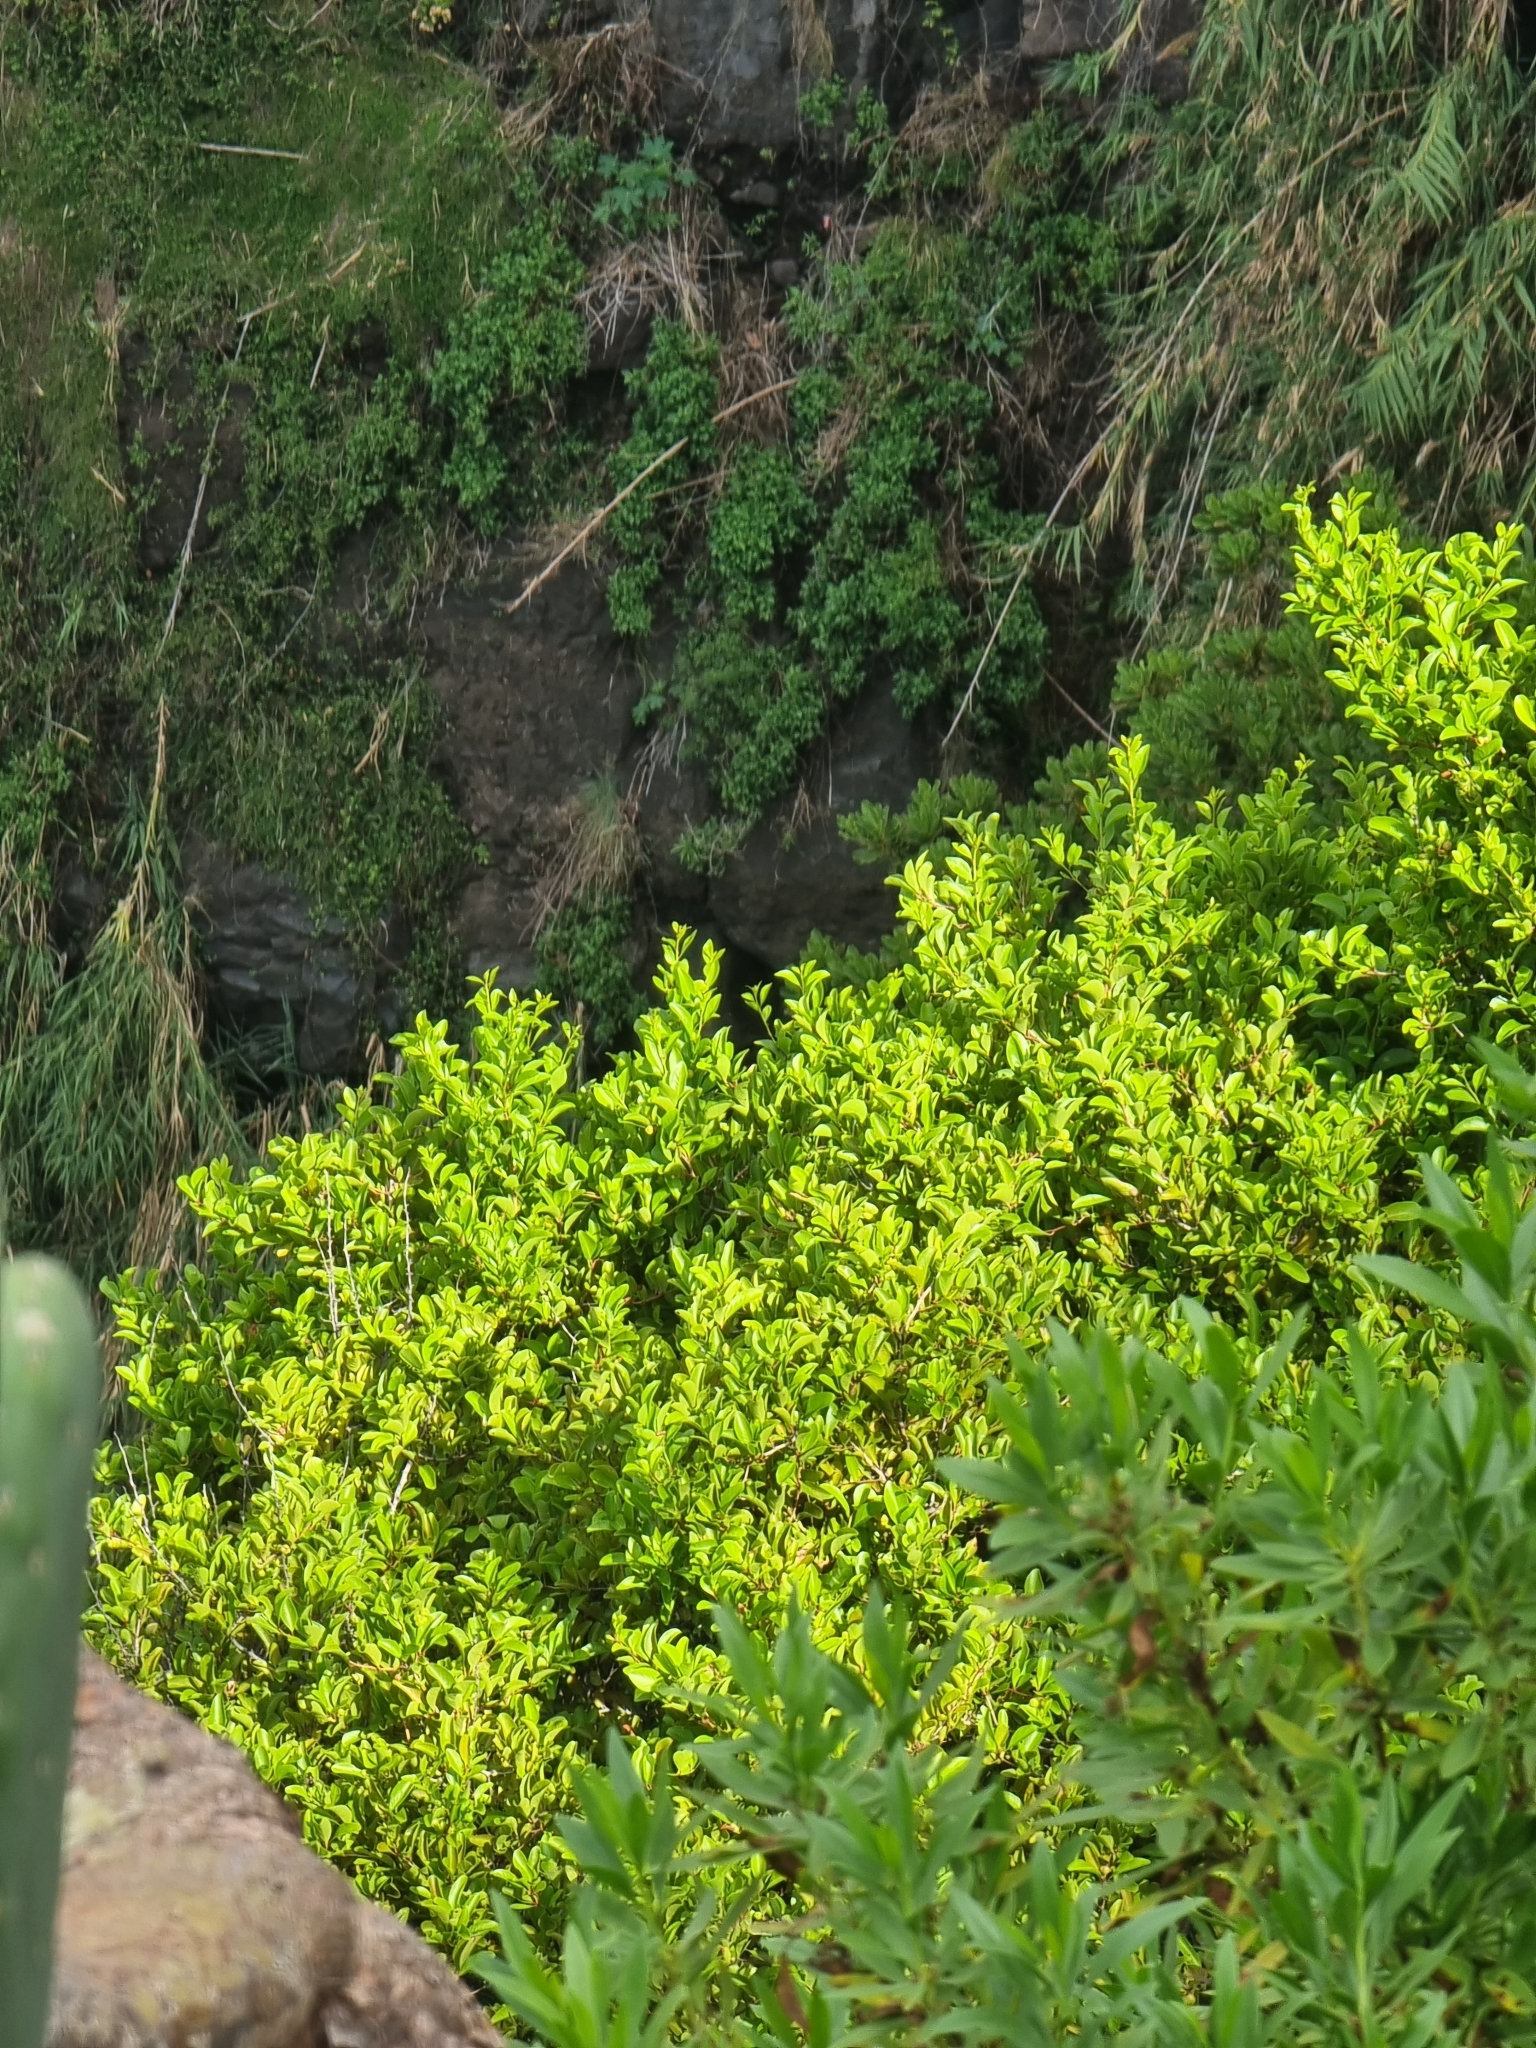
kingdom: Plantae
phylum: Tracheophyta
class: Magnoliopsida
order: Celastrales
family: Celastraceae
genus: Gymnosporia
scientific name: Gymnosporia dryandri
